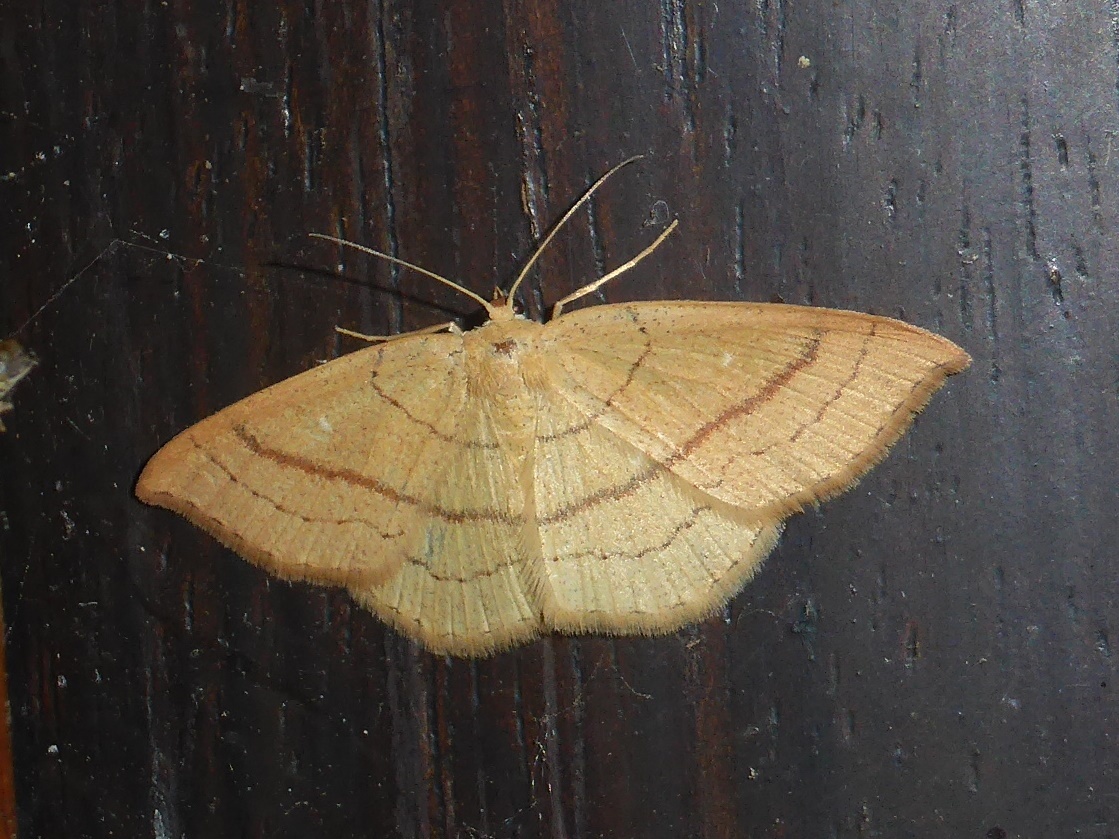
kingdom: Animalia
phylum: Arthropoda
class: Insecta
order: Lepidoptera
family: Geometridae
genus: Cyclophora
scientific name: Cyclophora linearia
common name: Clay triple-lines
